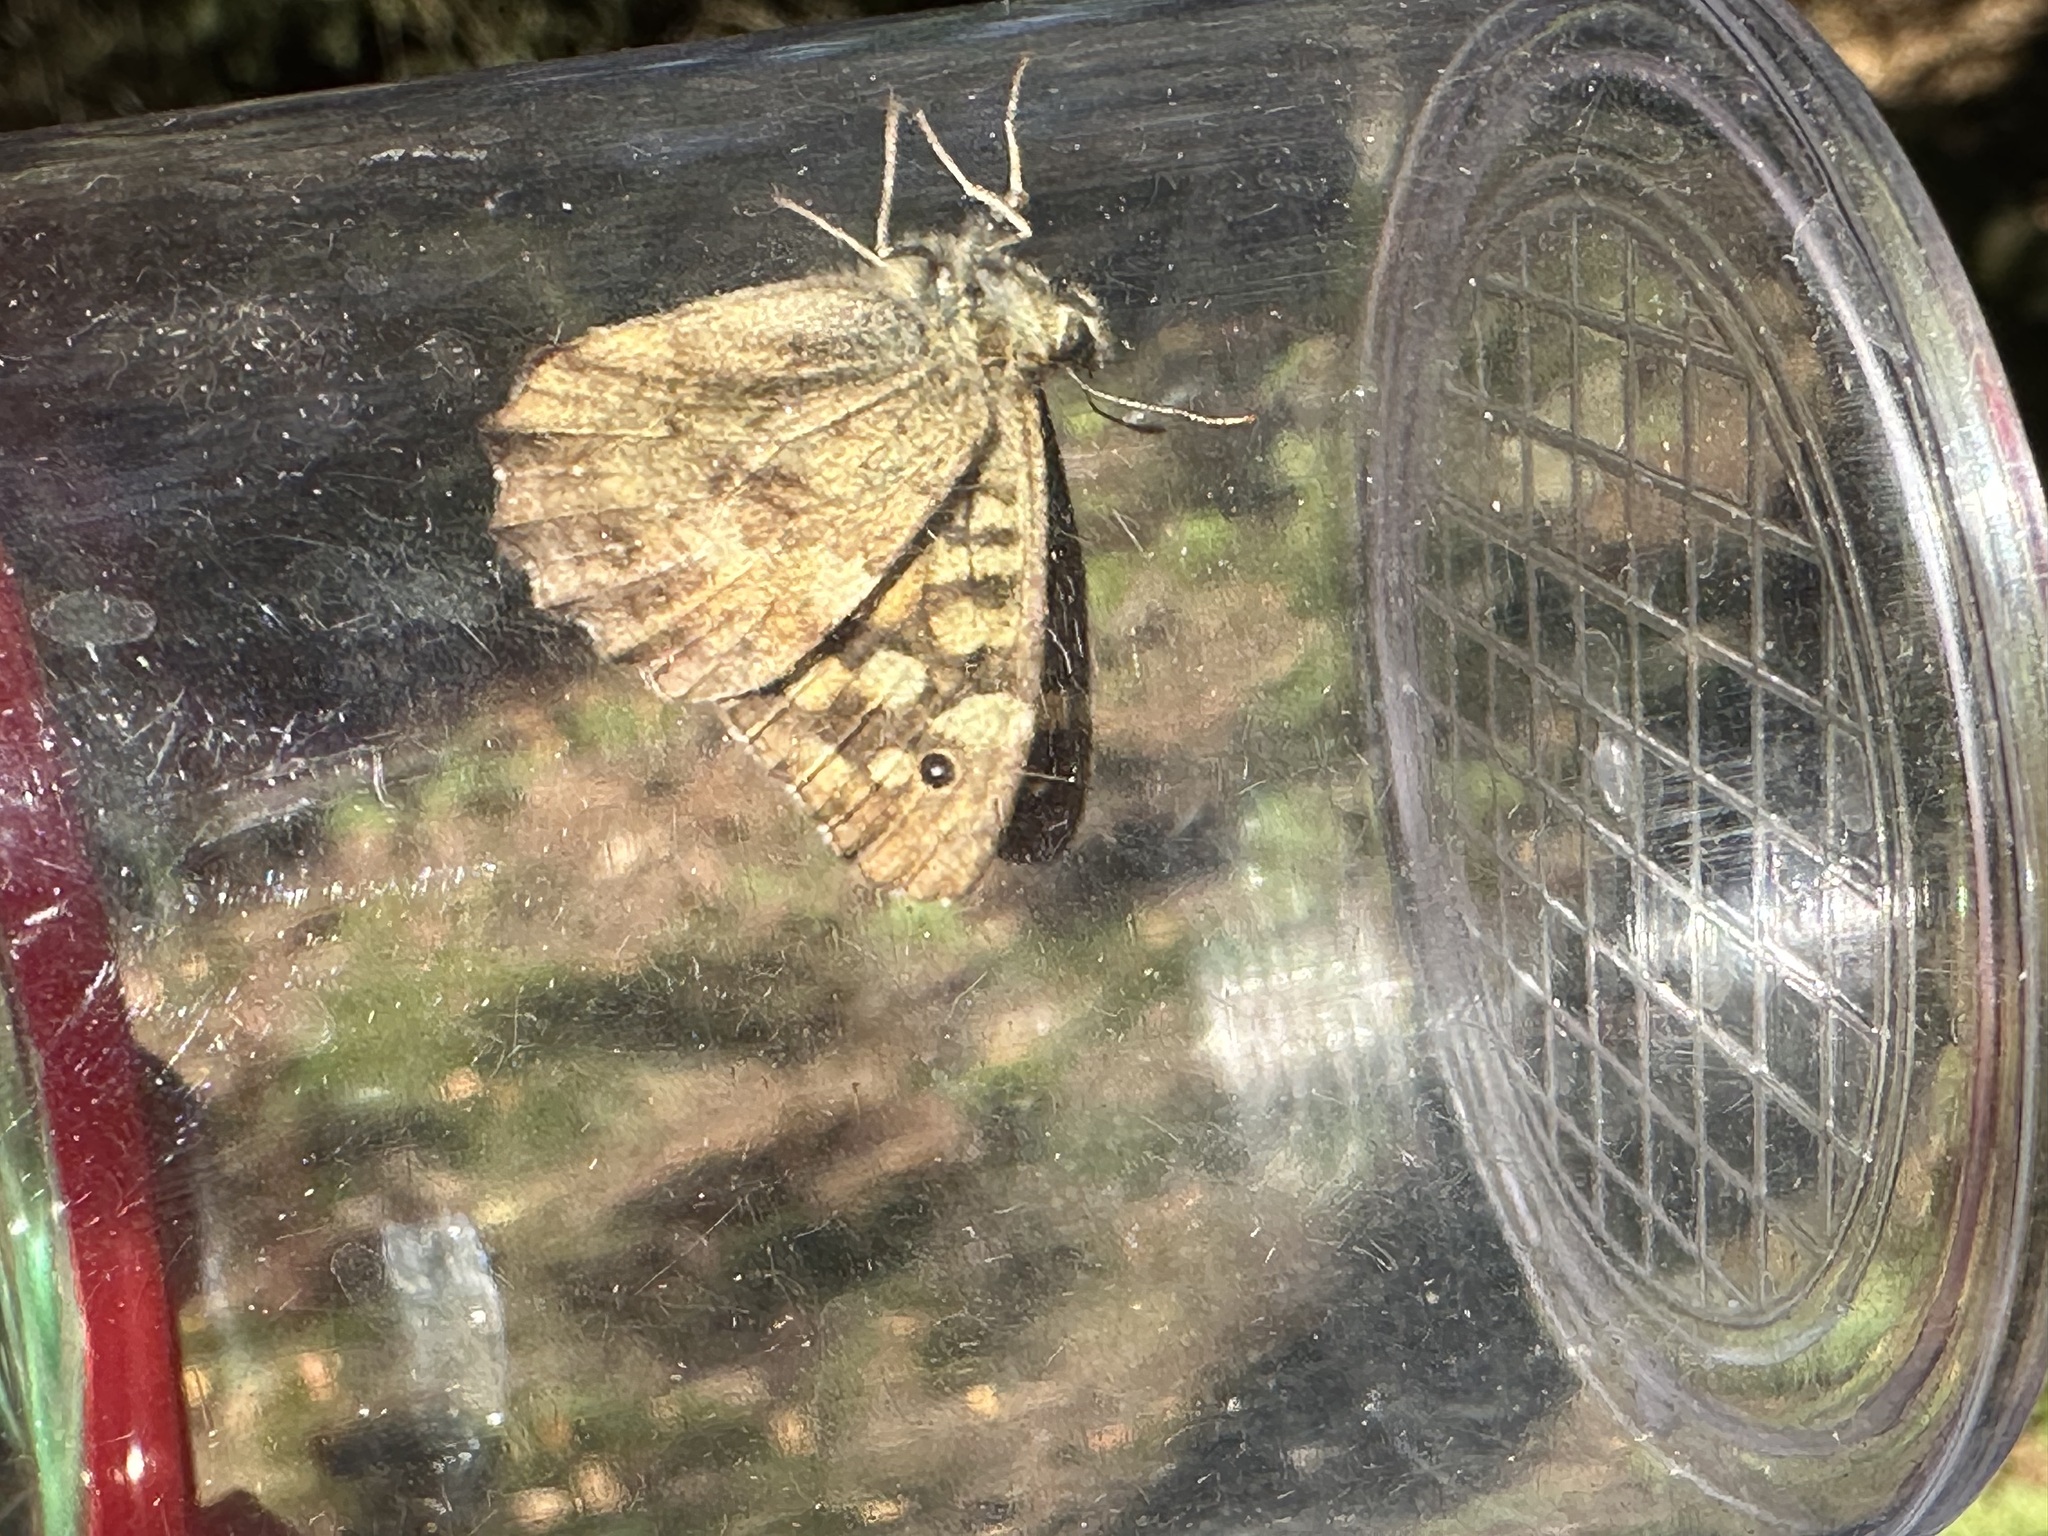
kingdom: Animalia
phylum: Arthropoda
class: Insecta
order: Lepidoptera
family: Nymphalidae
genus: Pararge
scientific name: Pararge aegeria
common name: Speckled wood
